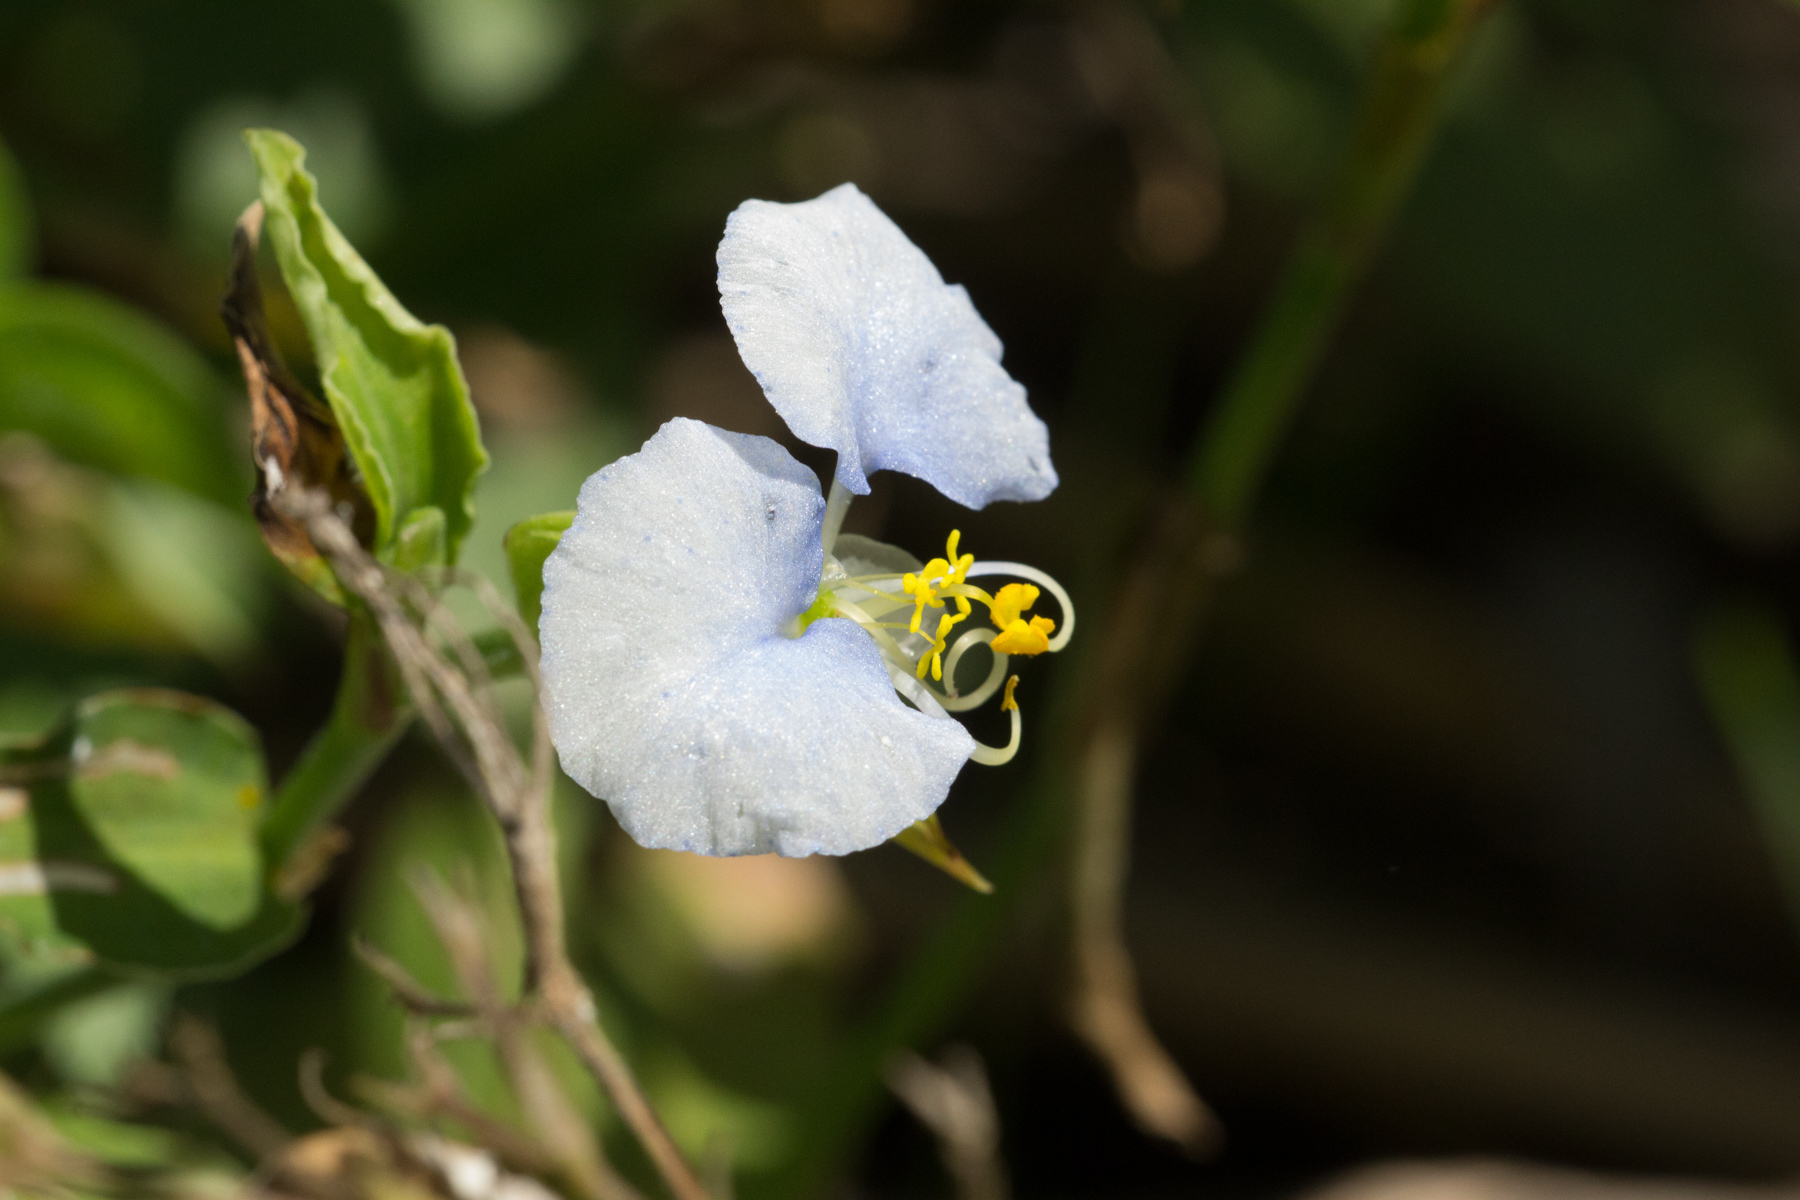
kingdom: Plantae
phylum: Tracheophyta
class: Liliopsida
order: Commelinales
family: Commelinaceae
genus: Commelina
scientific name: Commelina erecta
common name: Blousel blommetjie
